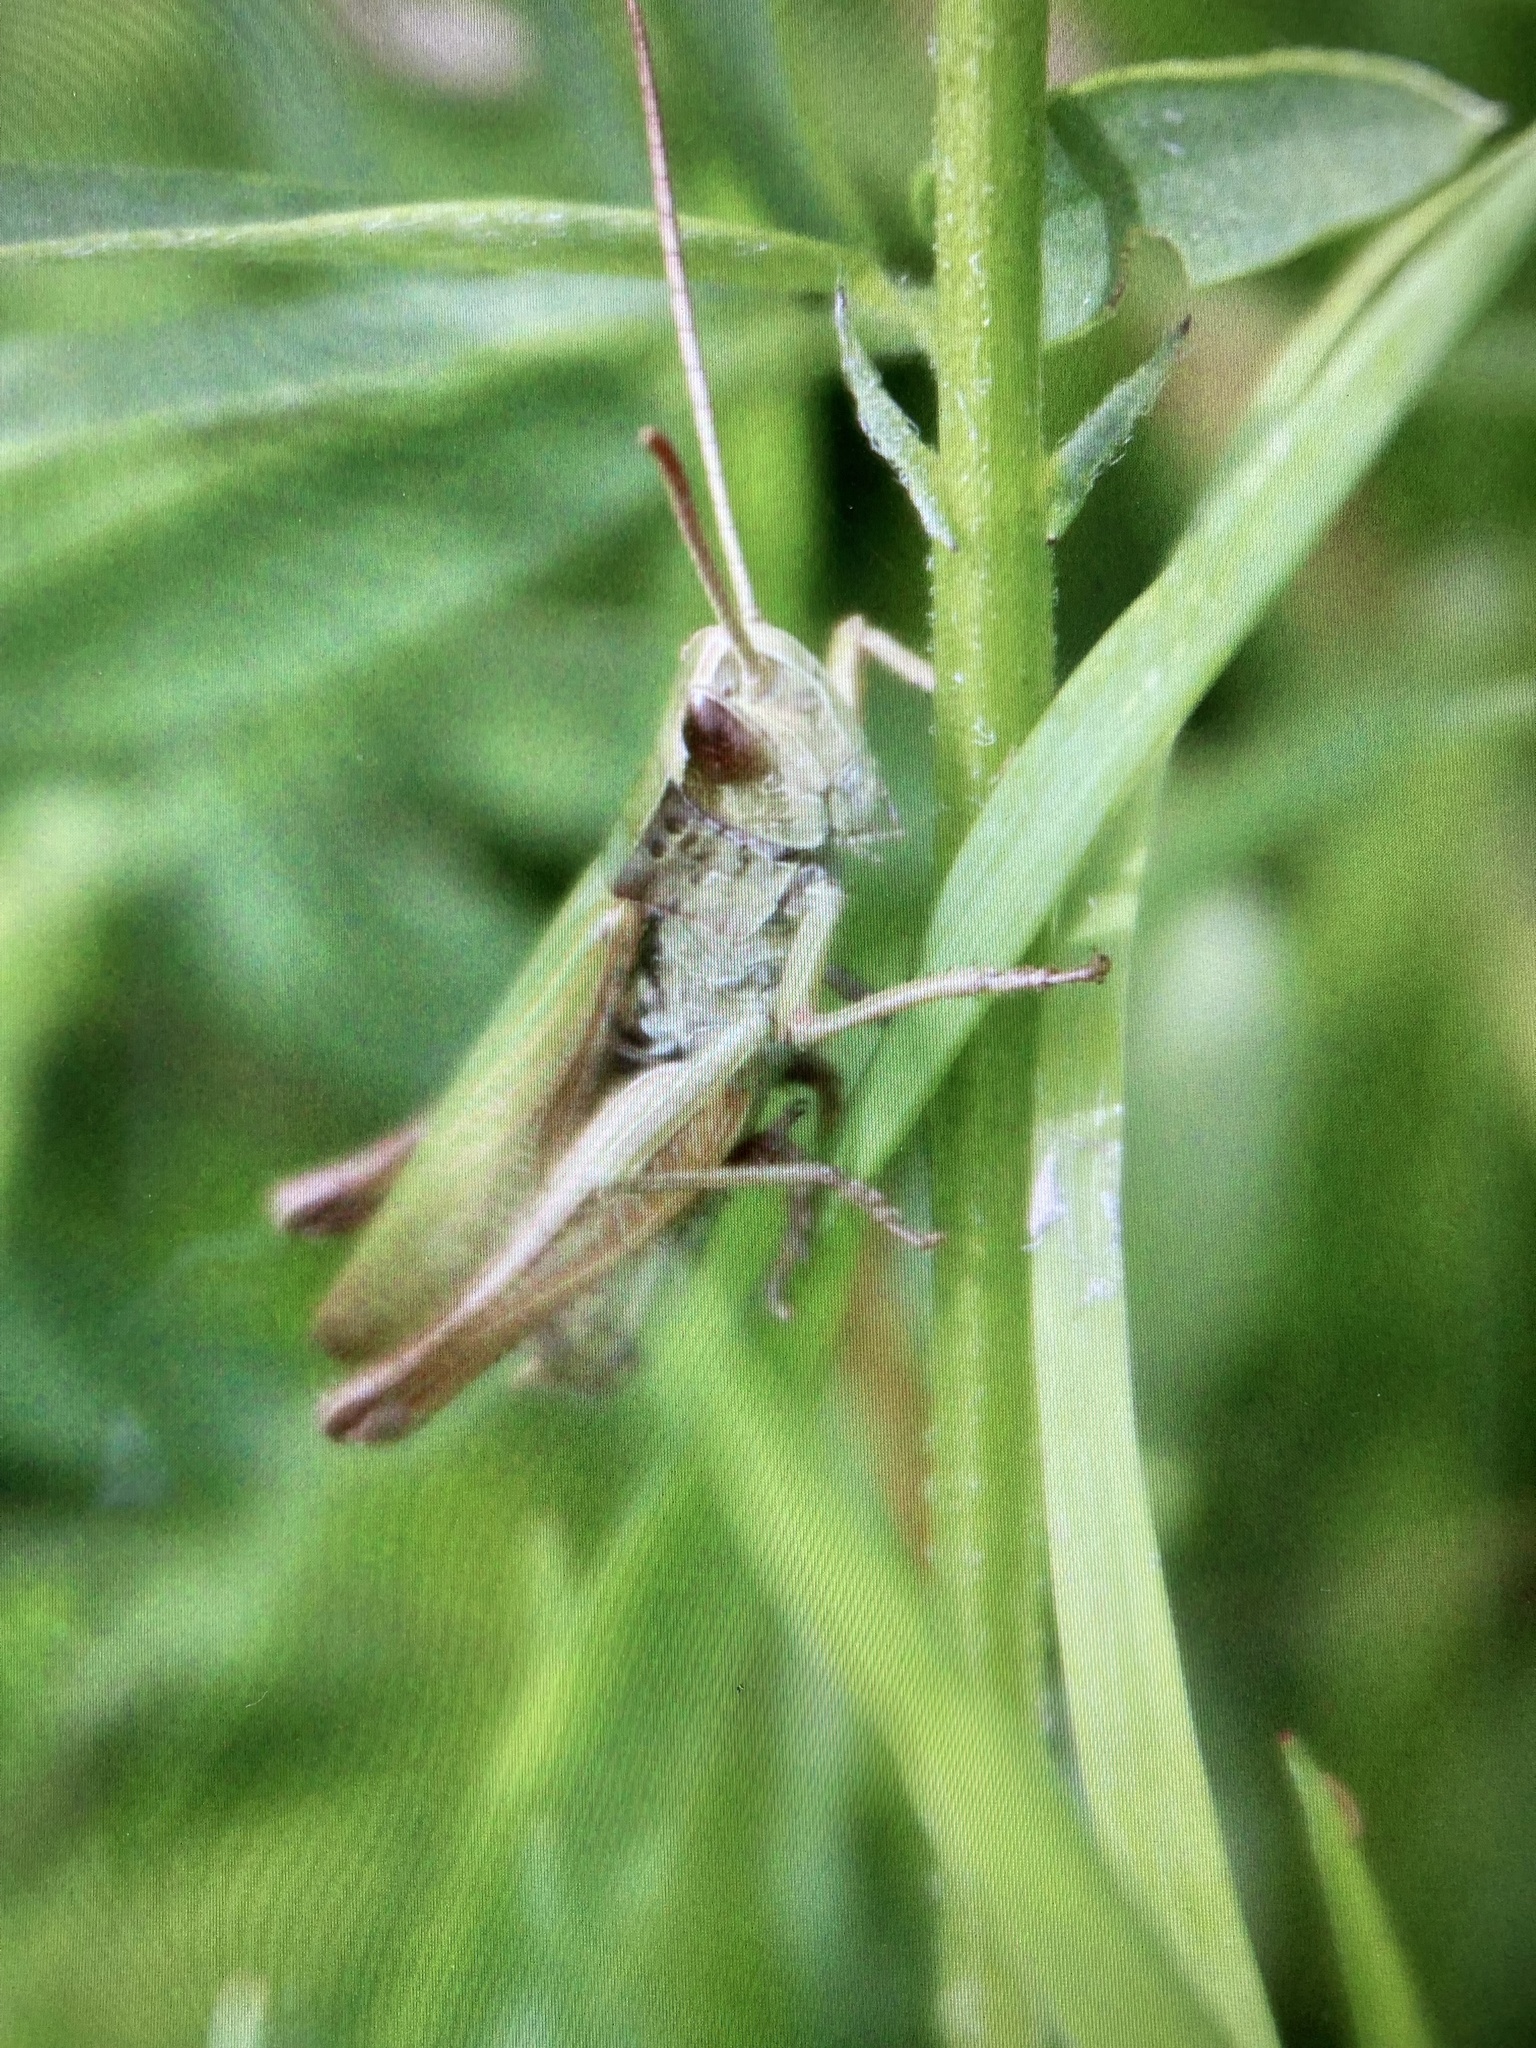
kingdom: Animalia
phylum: Arthropoda
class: Insecta
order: Orthoptera
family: Acrididae
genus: Chorthippus
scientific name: Chorthippus albomarginatus
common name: Lesser marsh grasshopper
